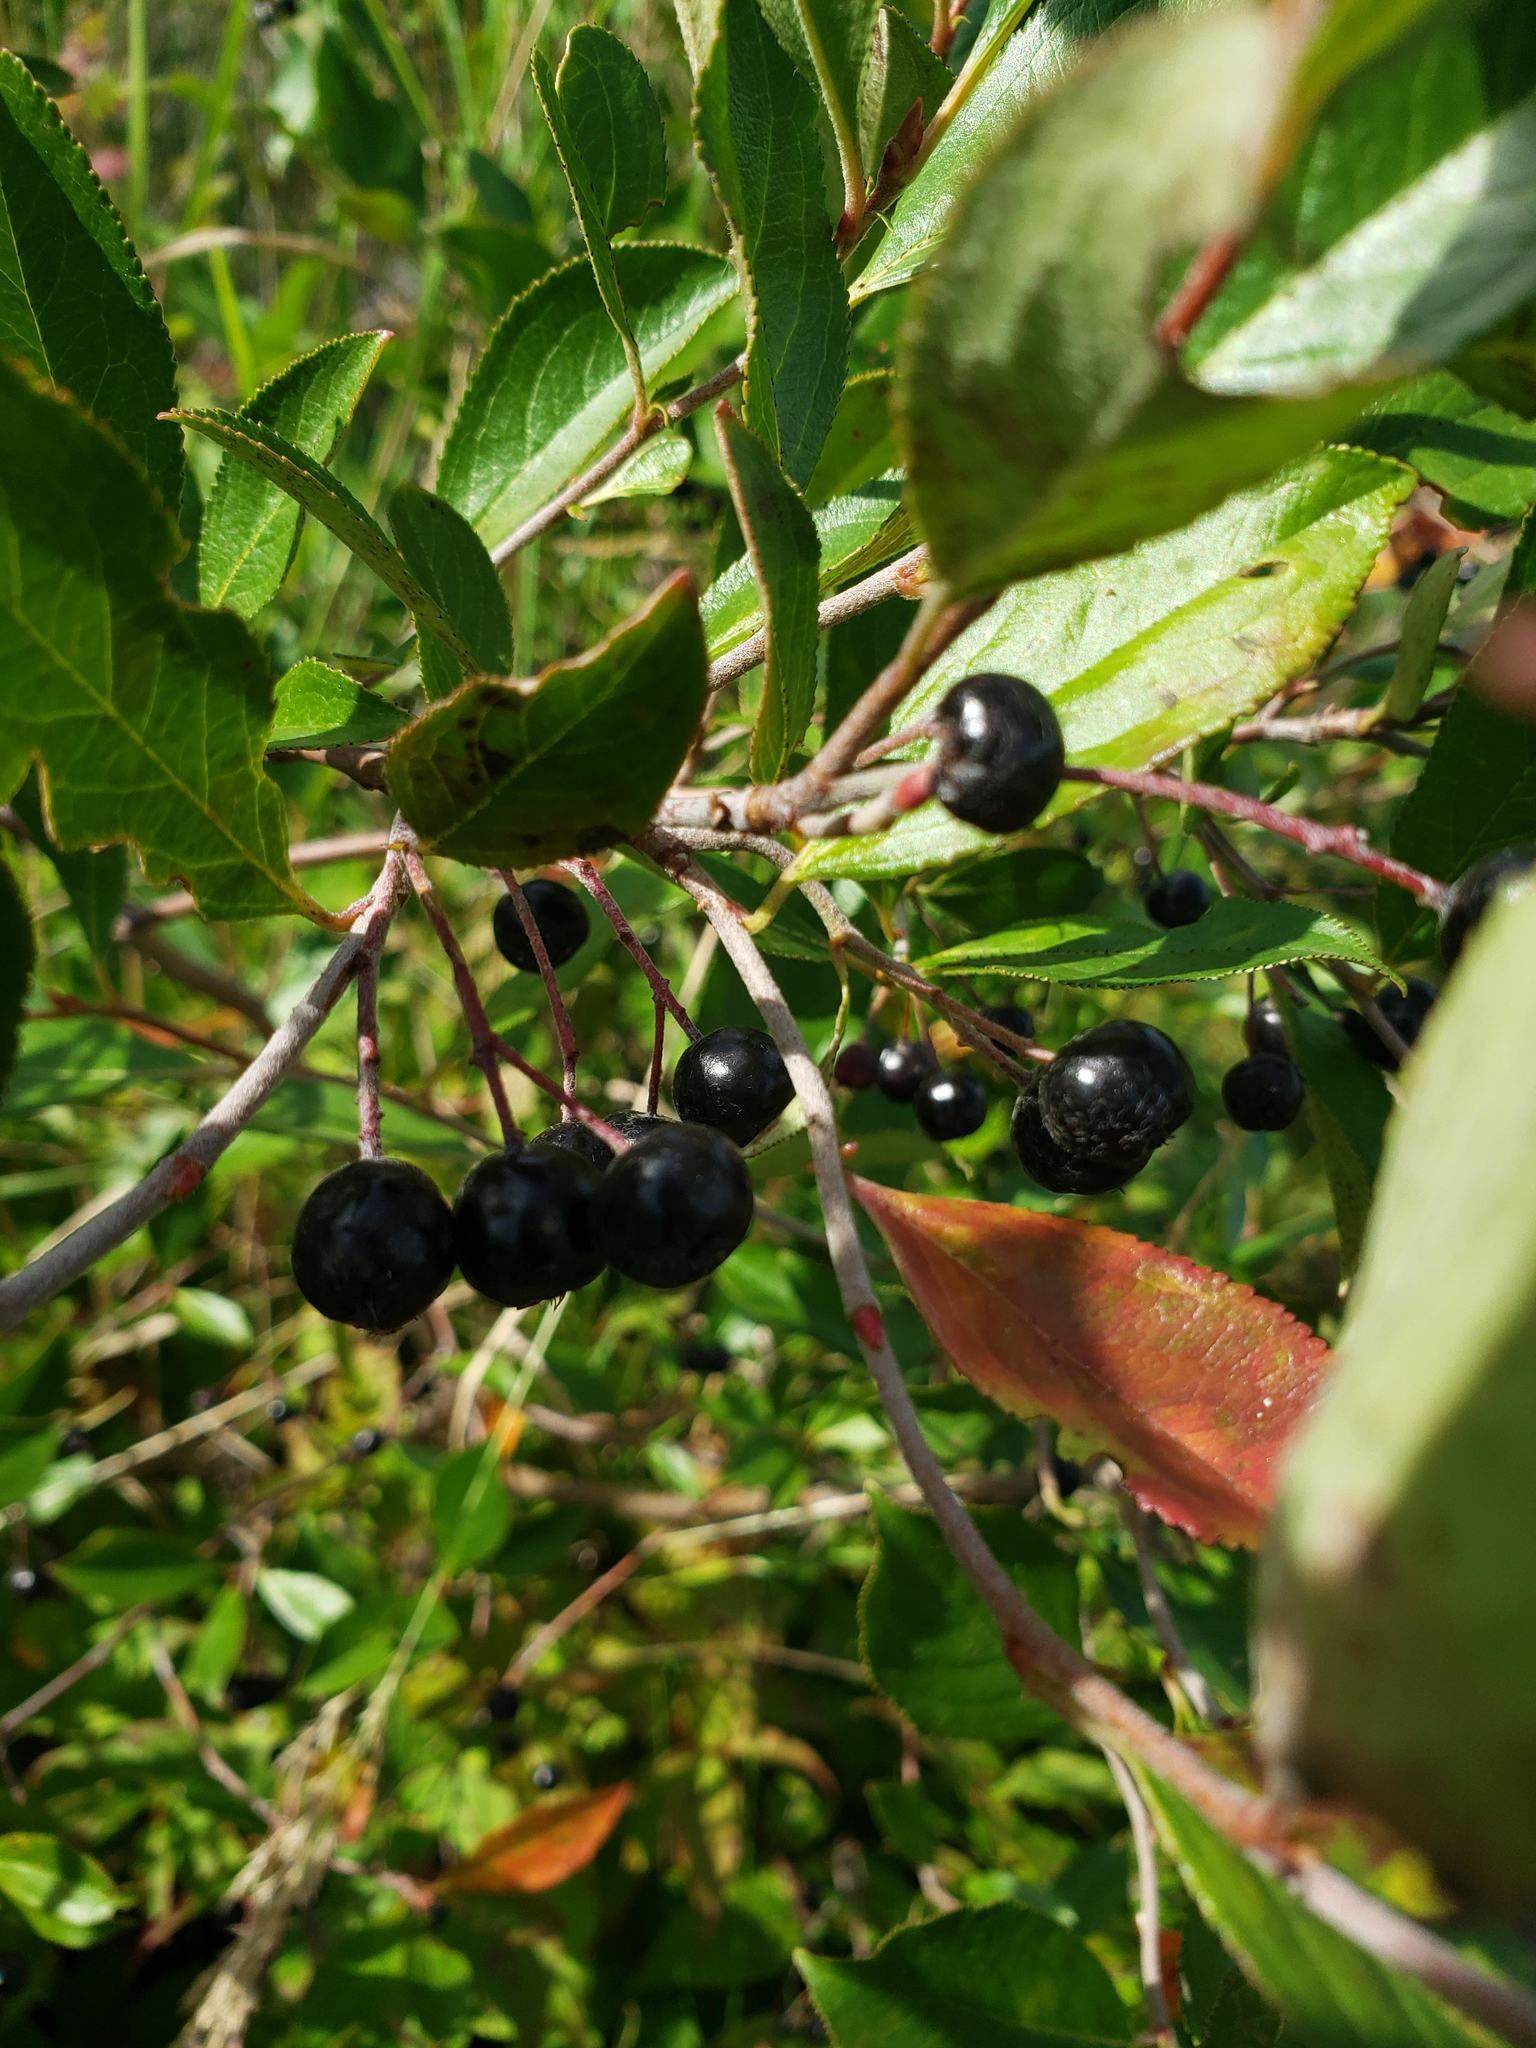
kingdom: Plantae
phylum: Tracheophyta
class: Magnoliopsida
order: Rosales
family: Rosaceae
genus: Aronia
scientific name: Aronia melanocarpa
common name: Black chokeberry
